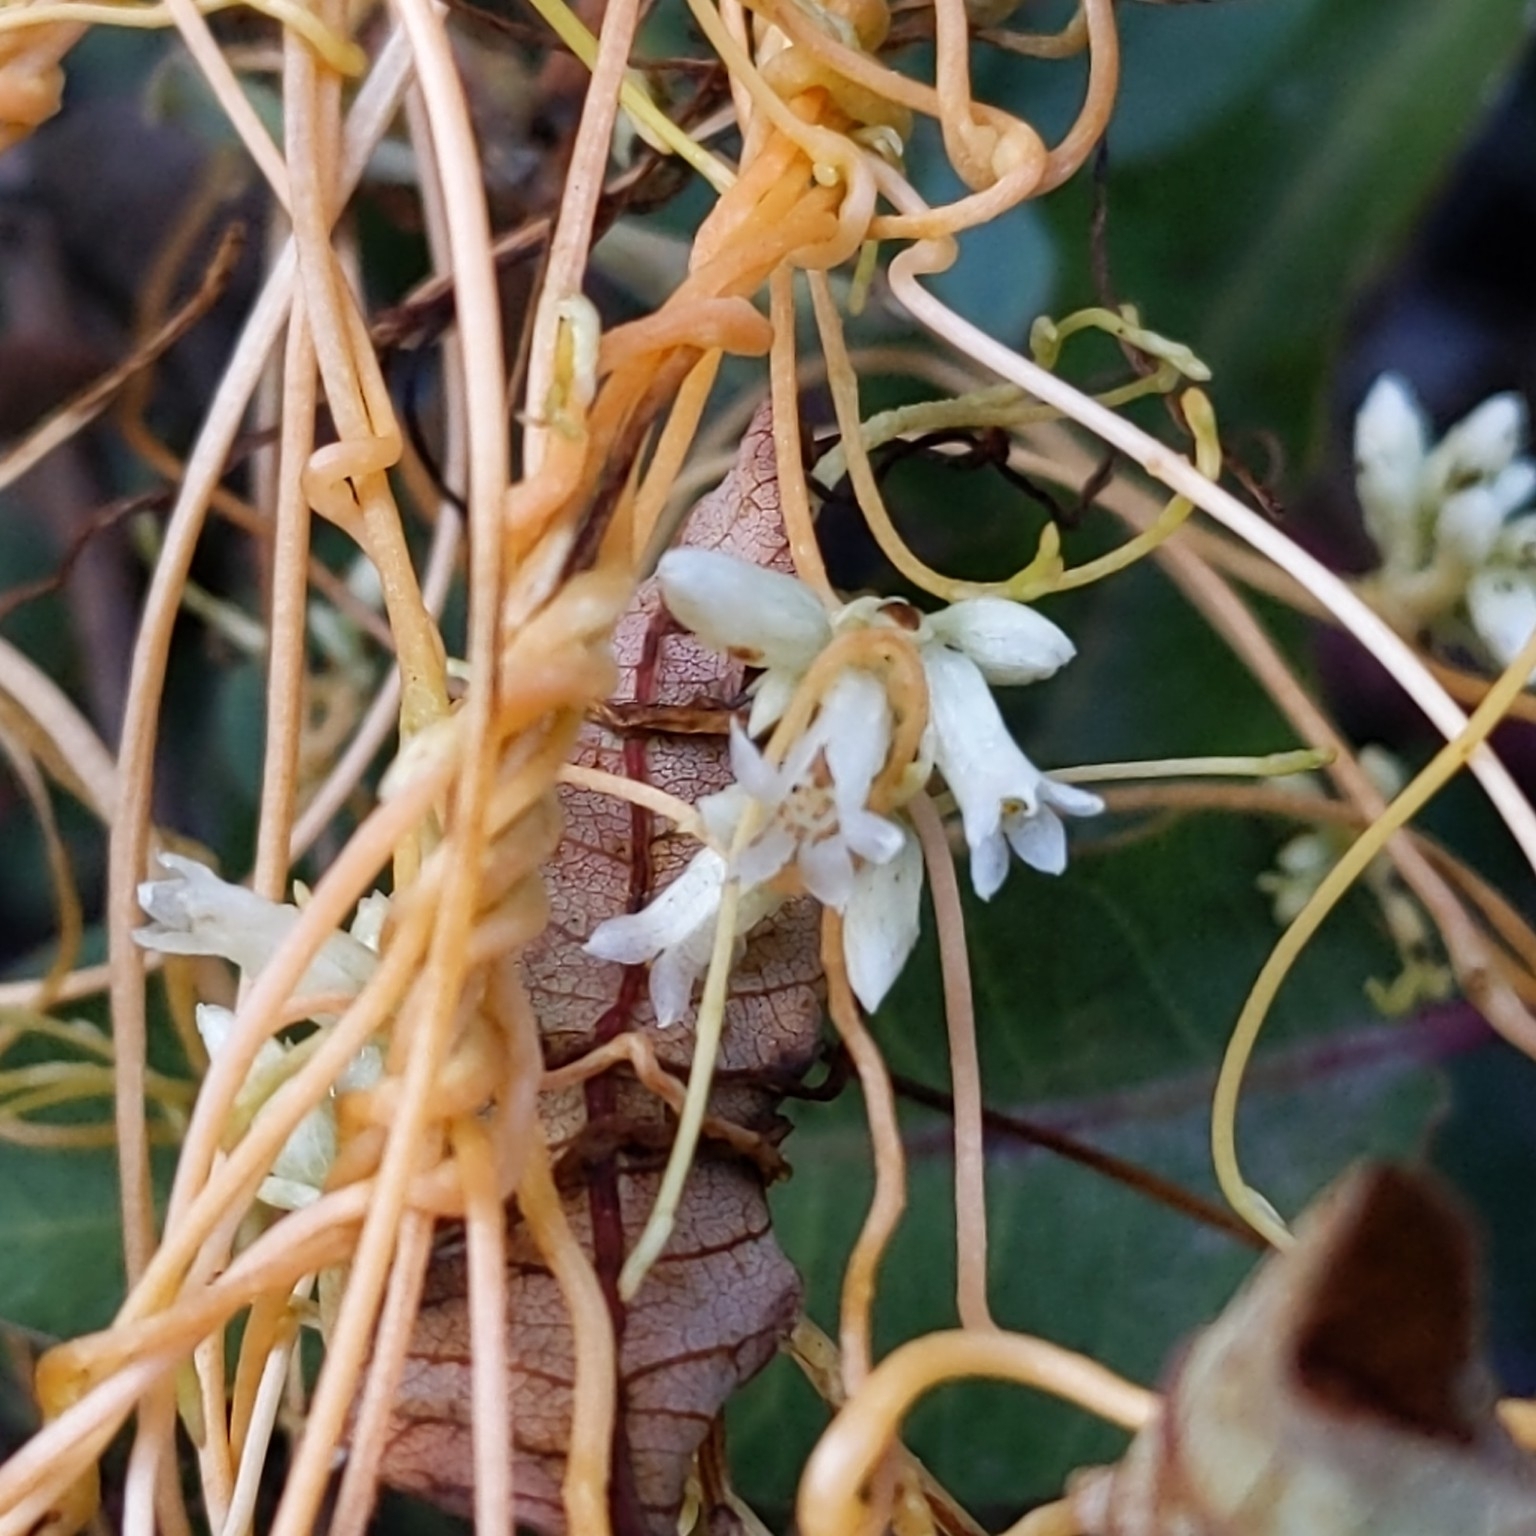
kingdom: Plantae
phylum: Tracheophyta
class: Magnoliopsida
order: Solanales
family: Convolvulaceae
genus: Cuscuta
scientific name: Cuscuta subinclusa
